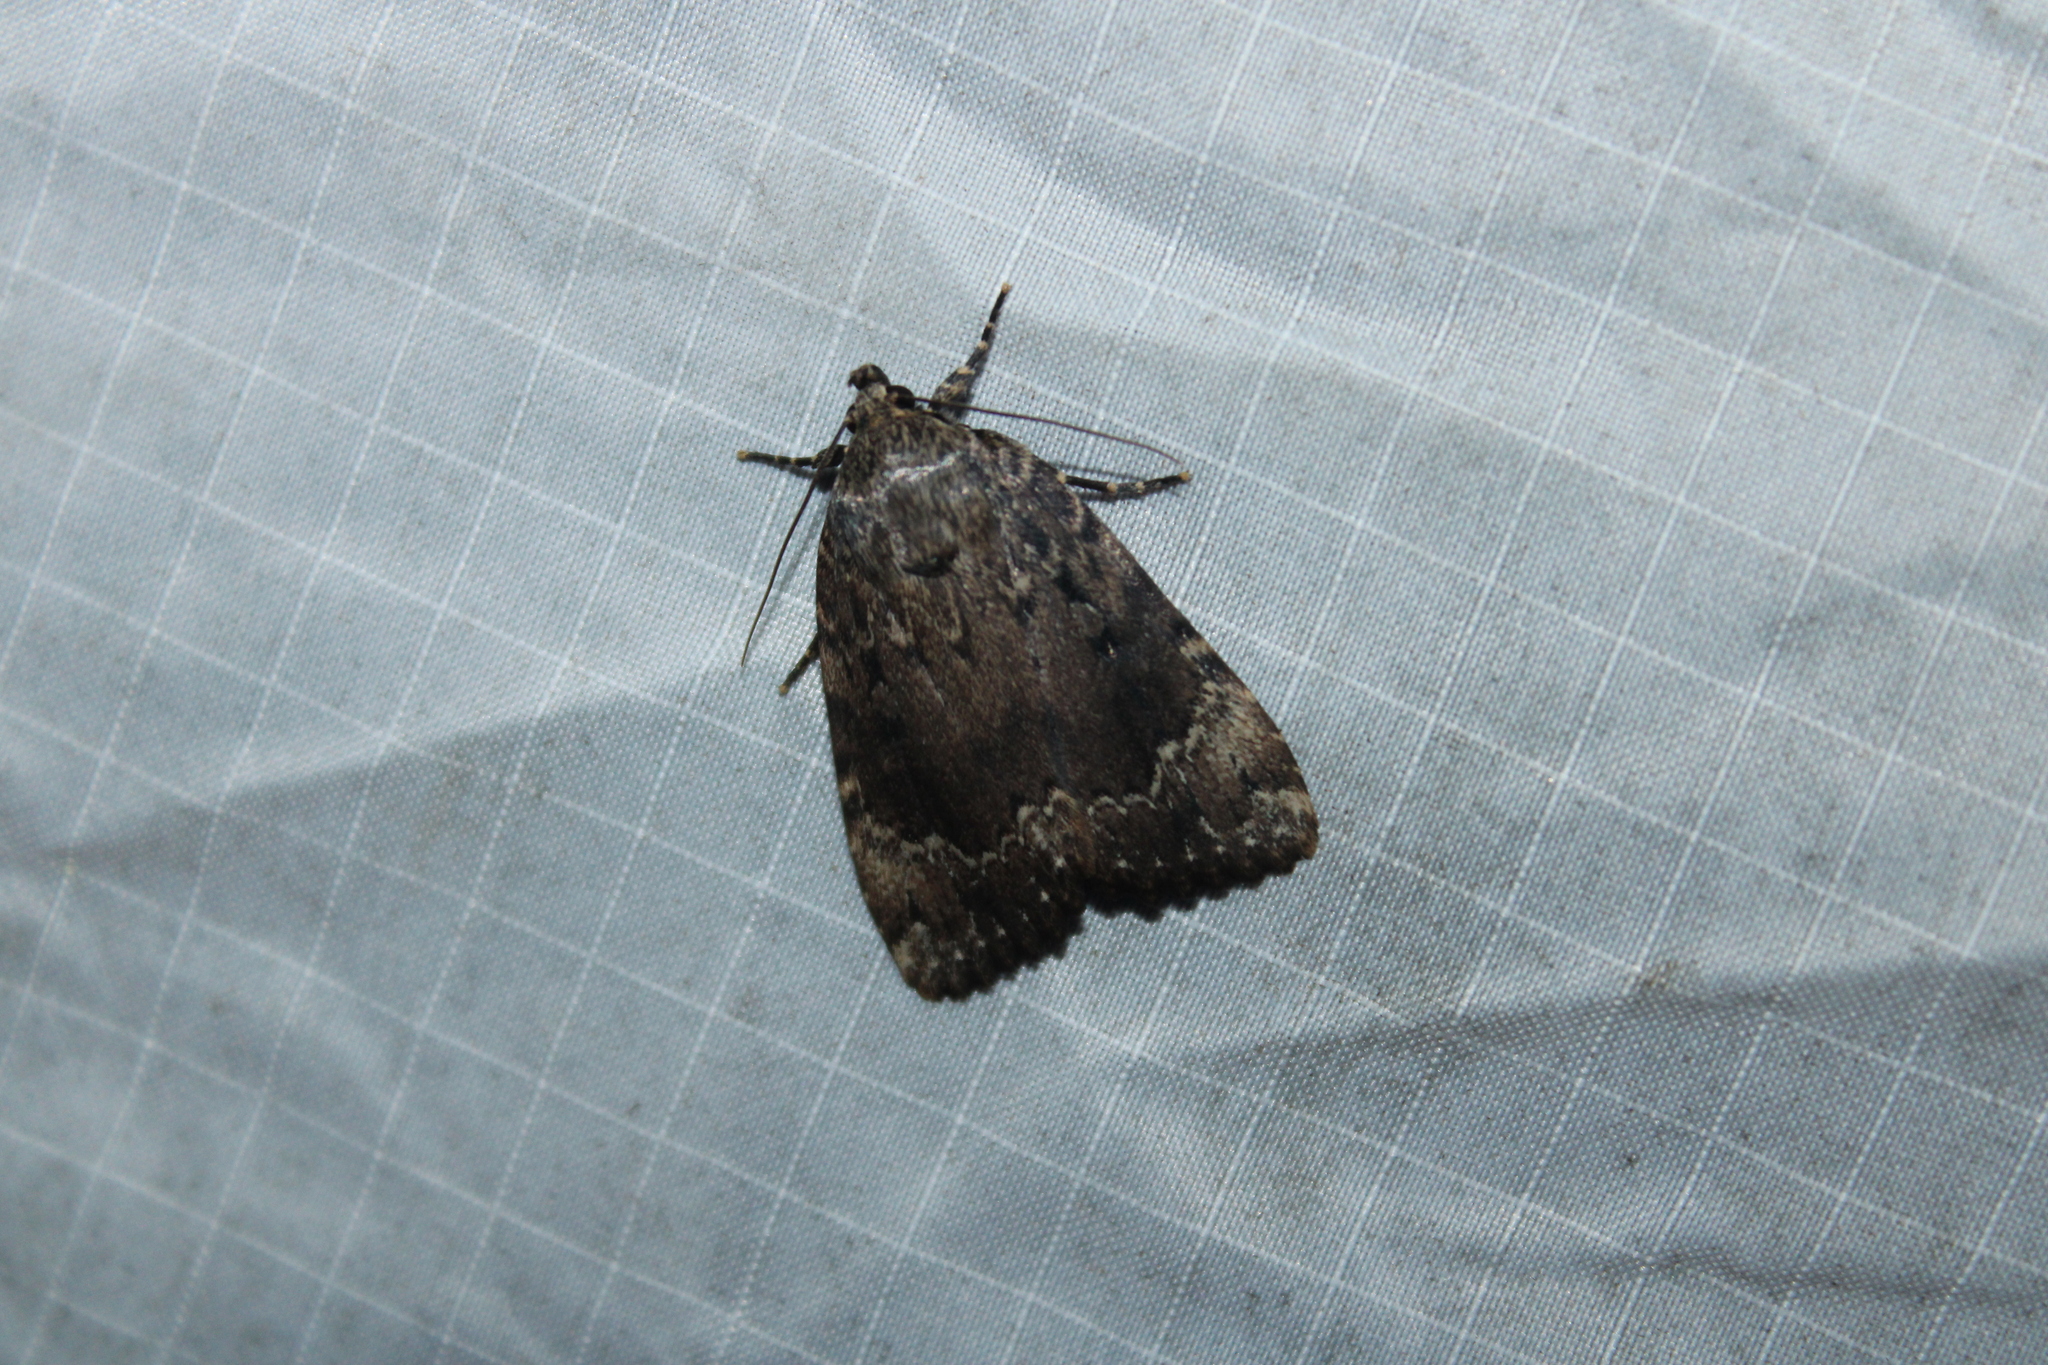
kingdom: Animalia
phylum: Arthropoda
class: Insecta
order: Lepidoptera
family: Noctuidae
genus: Amphipyra
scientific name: Amphipyra pyramidoides
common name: American copper underwing
